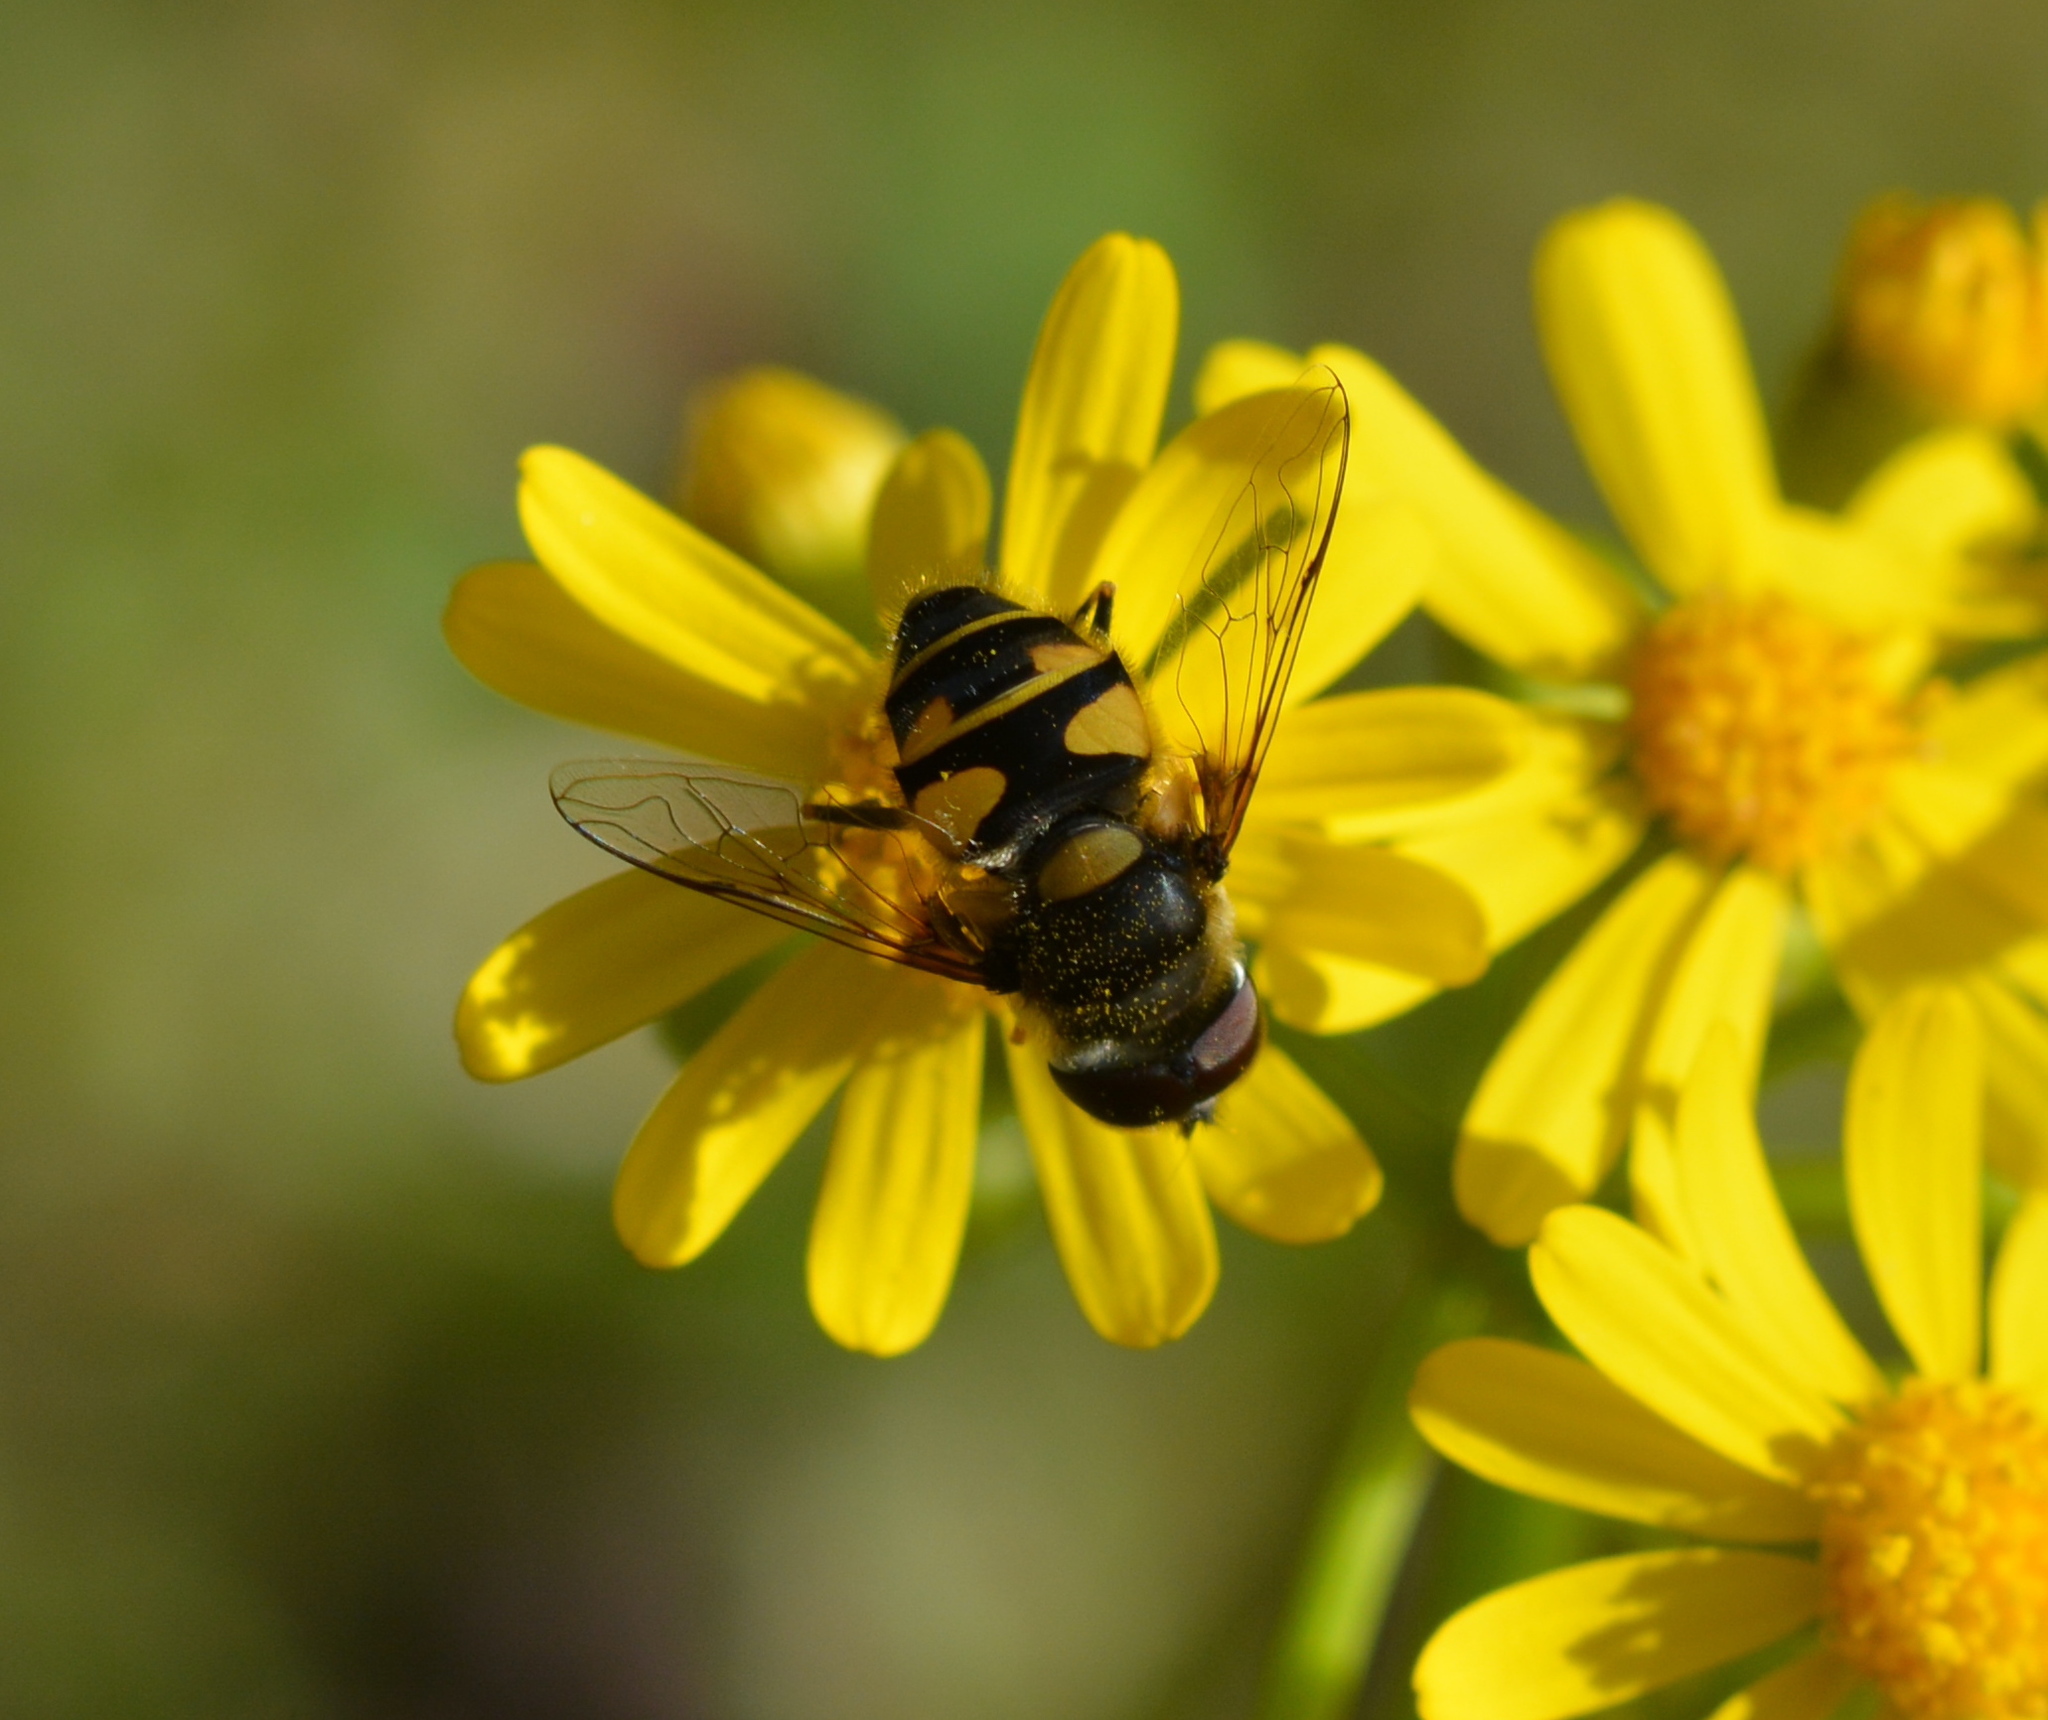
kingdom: Animalia
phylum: Arthropoda
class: Insecta
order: Diptera
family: Syrphidae
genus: Eristalis
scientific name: Eristalis transversa
